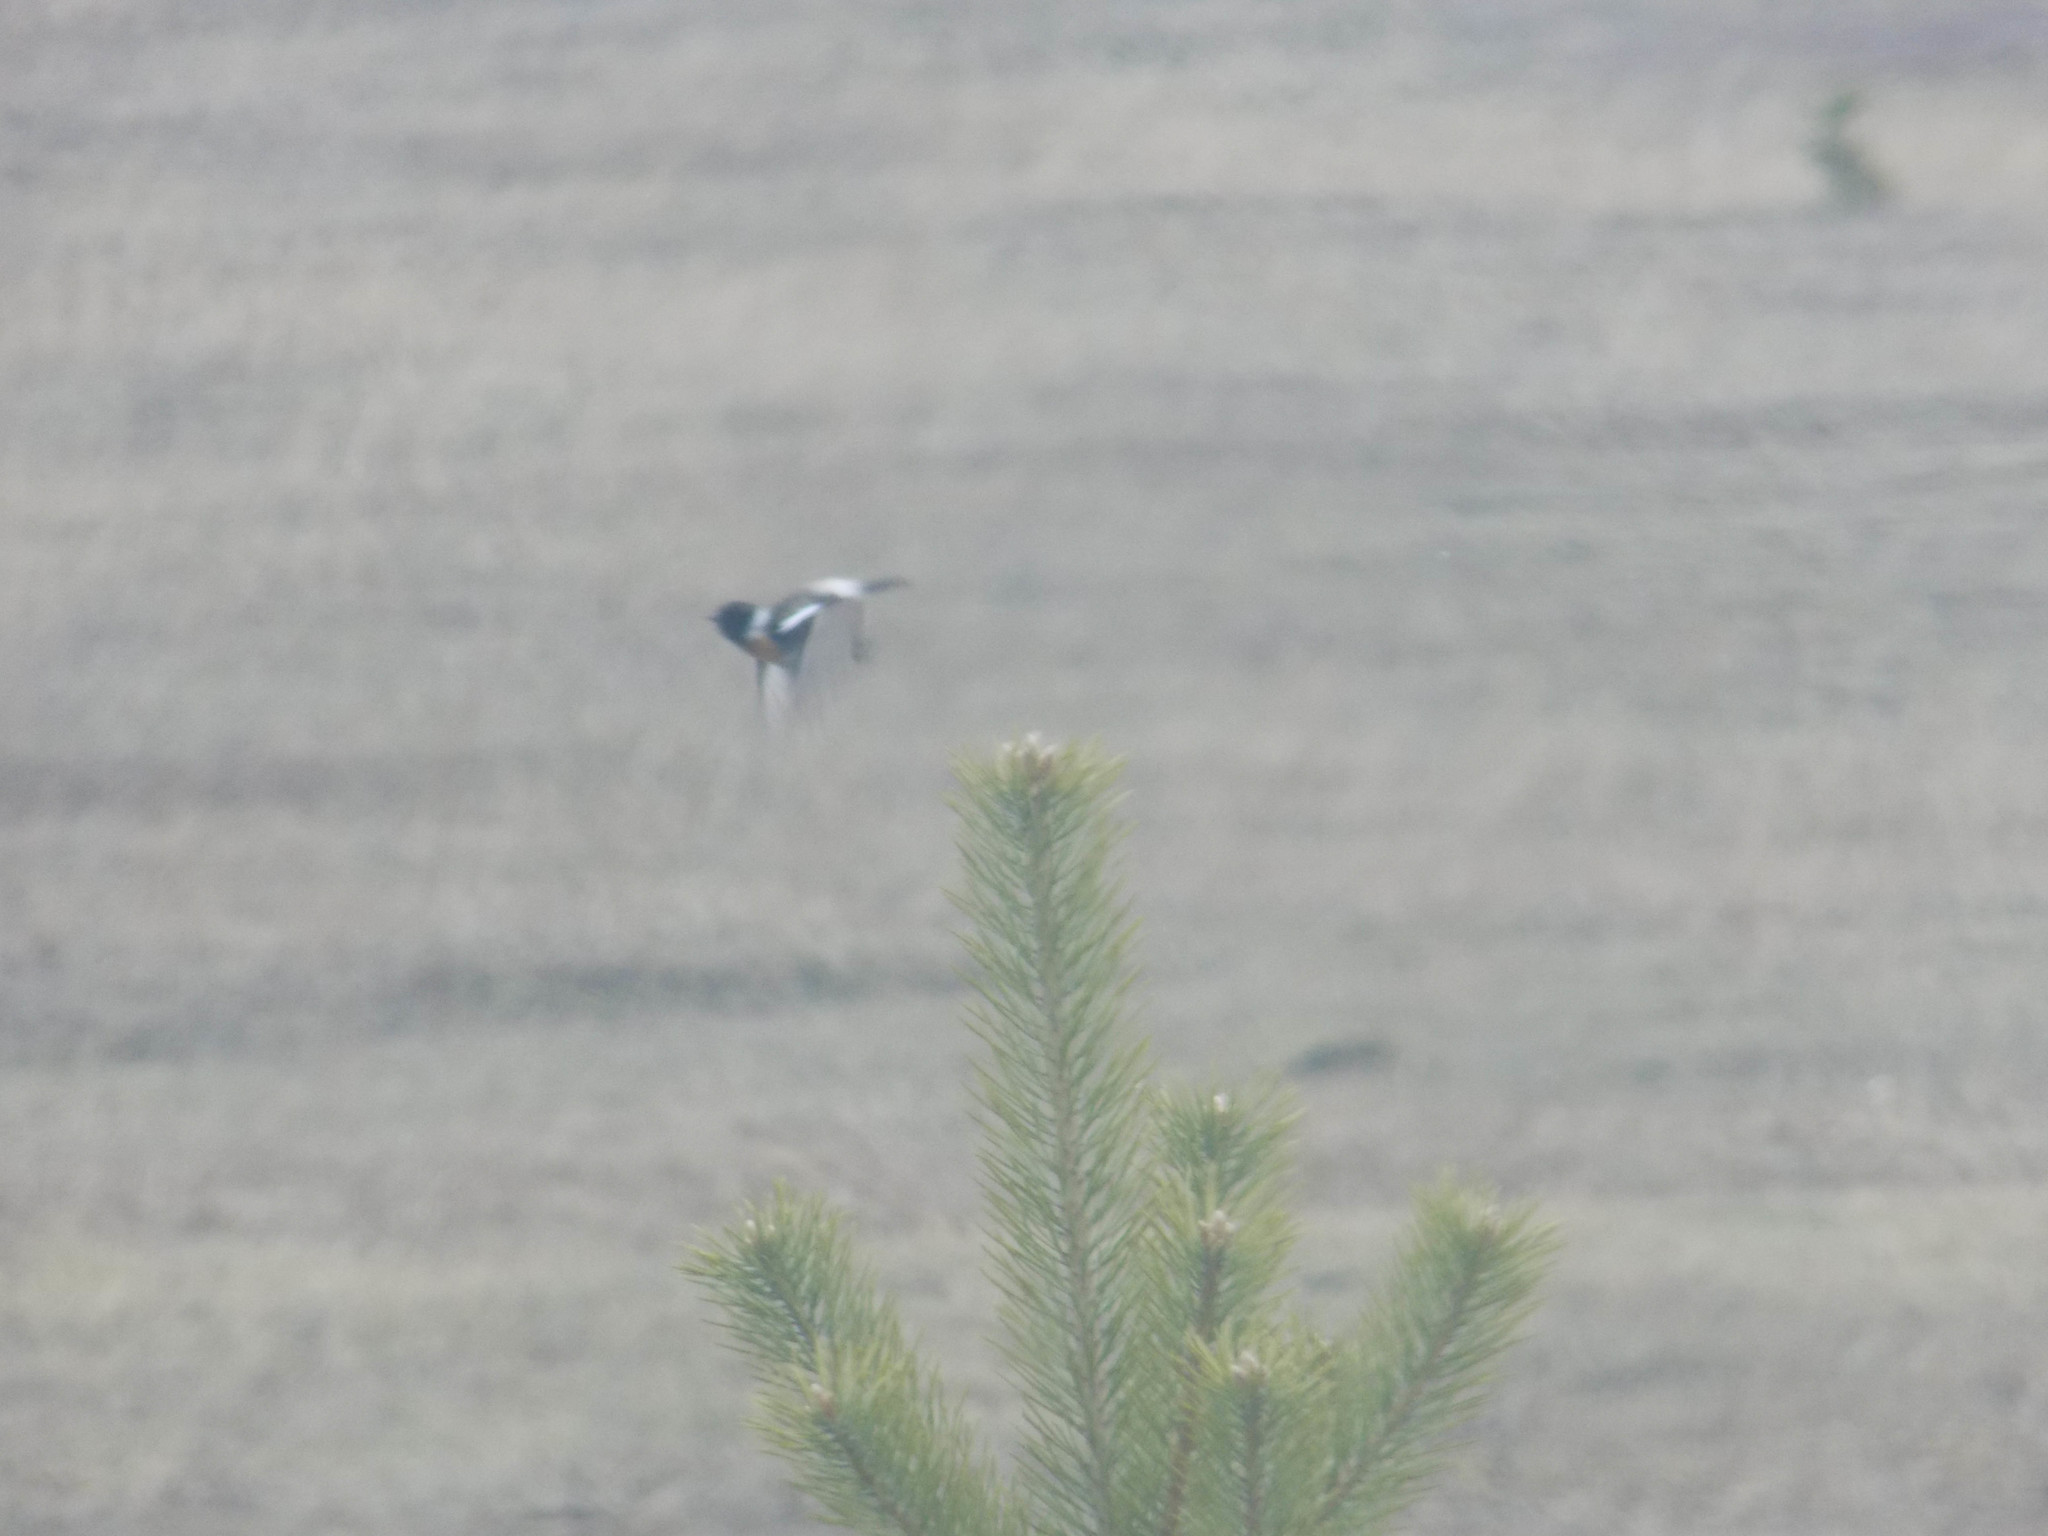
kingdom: Animalia
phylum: Chordata
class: Aves
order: Passeriformes
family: Muscicapidae
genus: Saxicola
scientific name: Saxicola maurus
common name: Siberian stonechat
